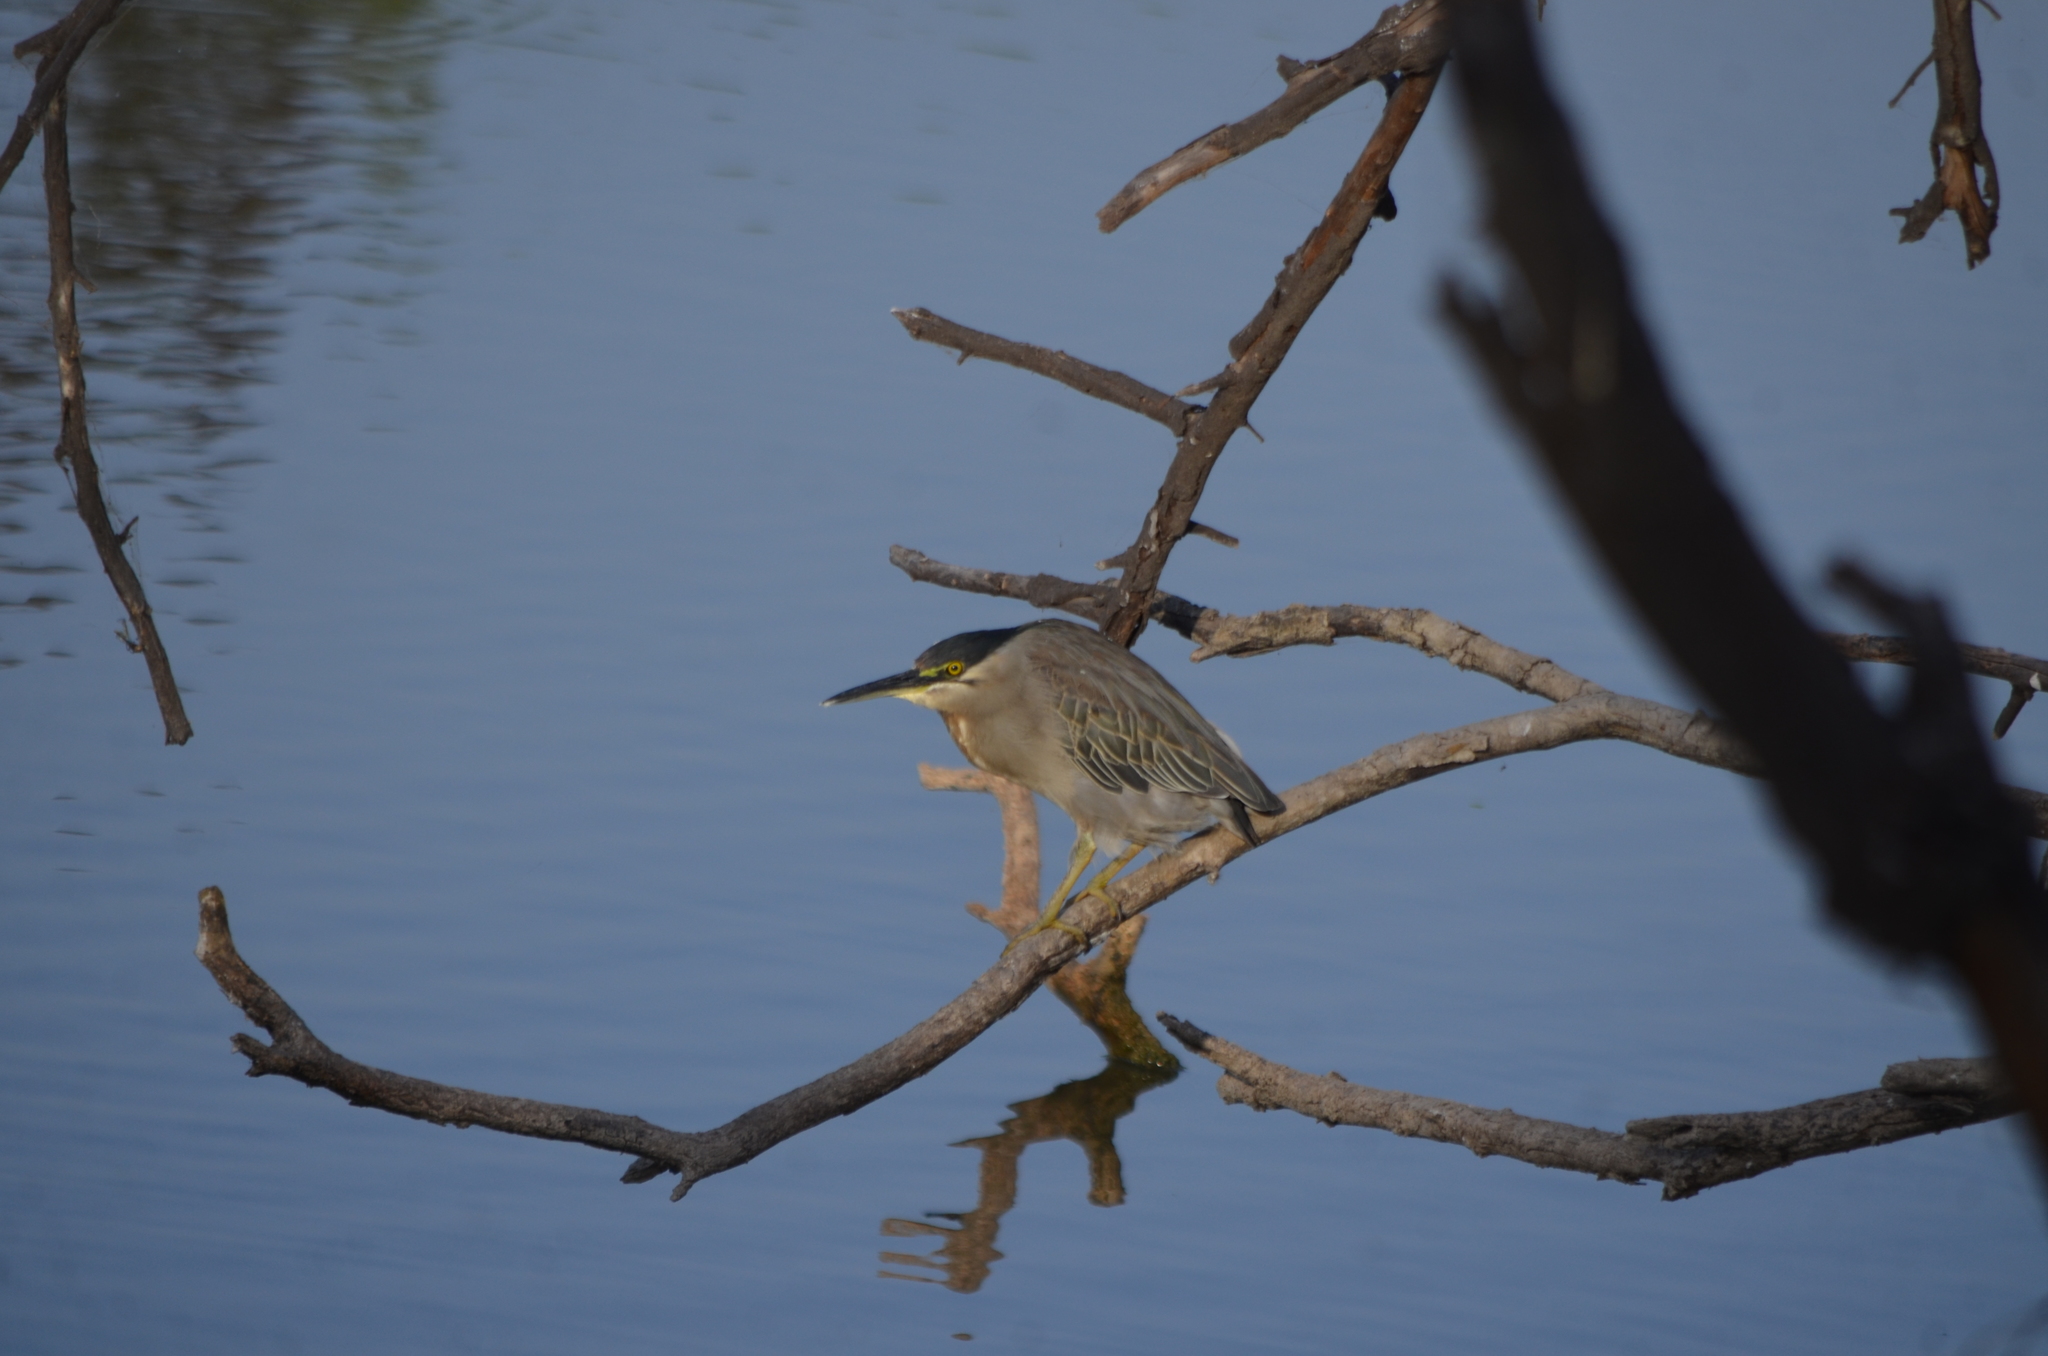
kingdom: Animalia
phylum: Chordata
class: Aves
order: Pelecaniformes
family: Ardeidae
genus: Butorides
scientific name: Butorides striata
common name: Striated heron
